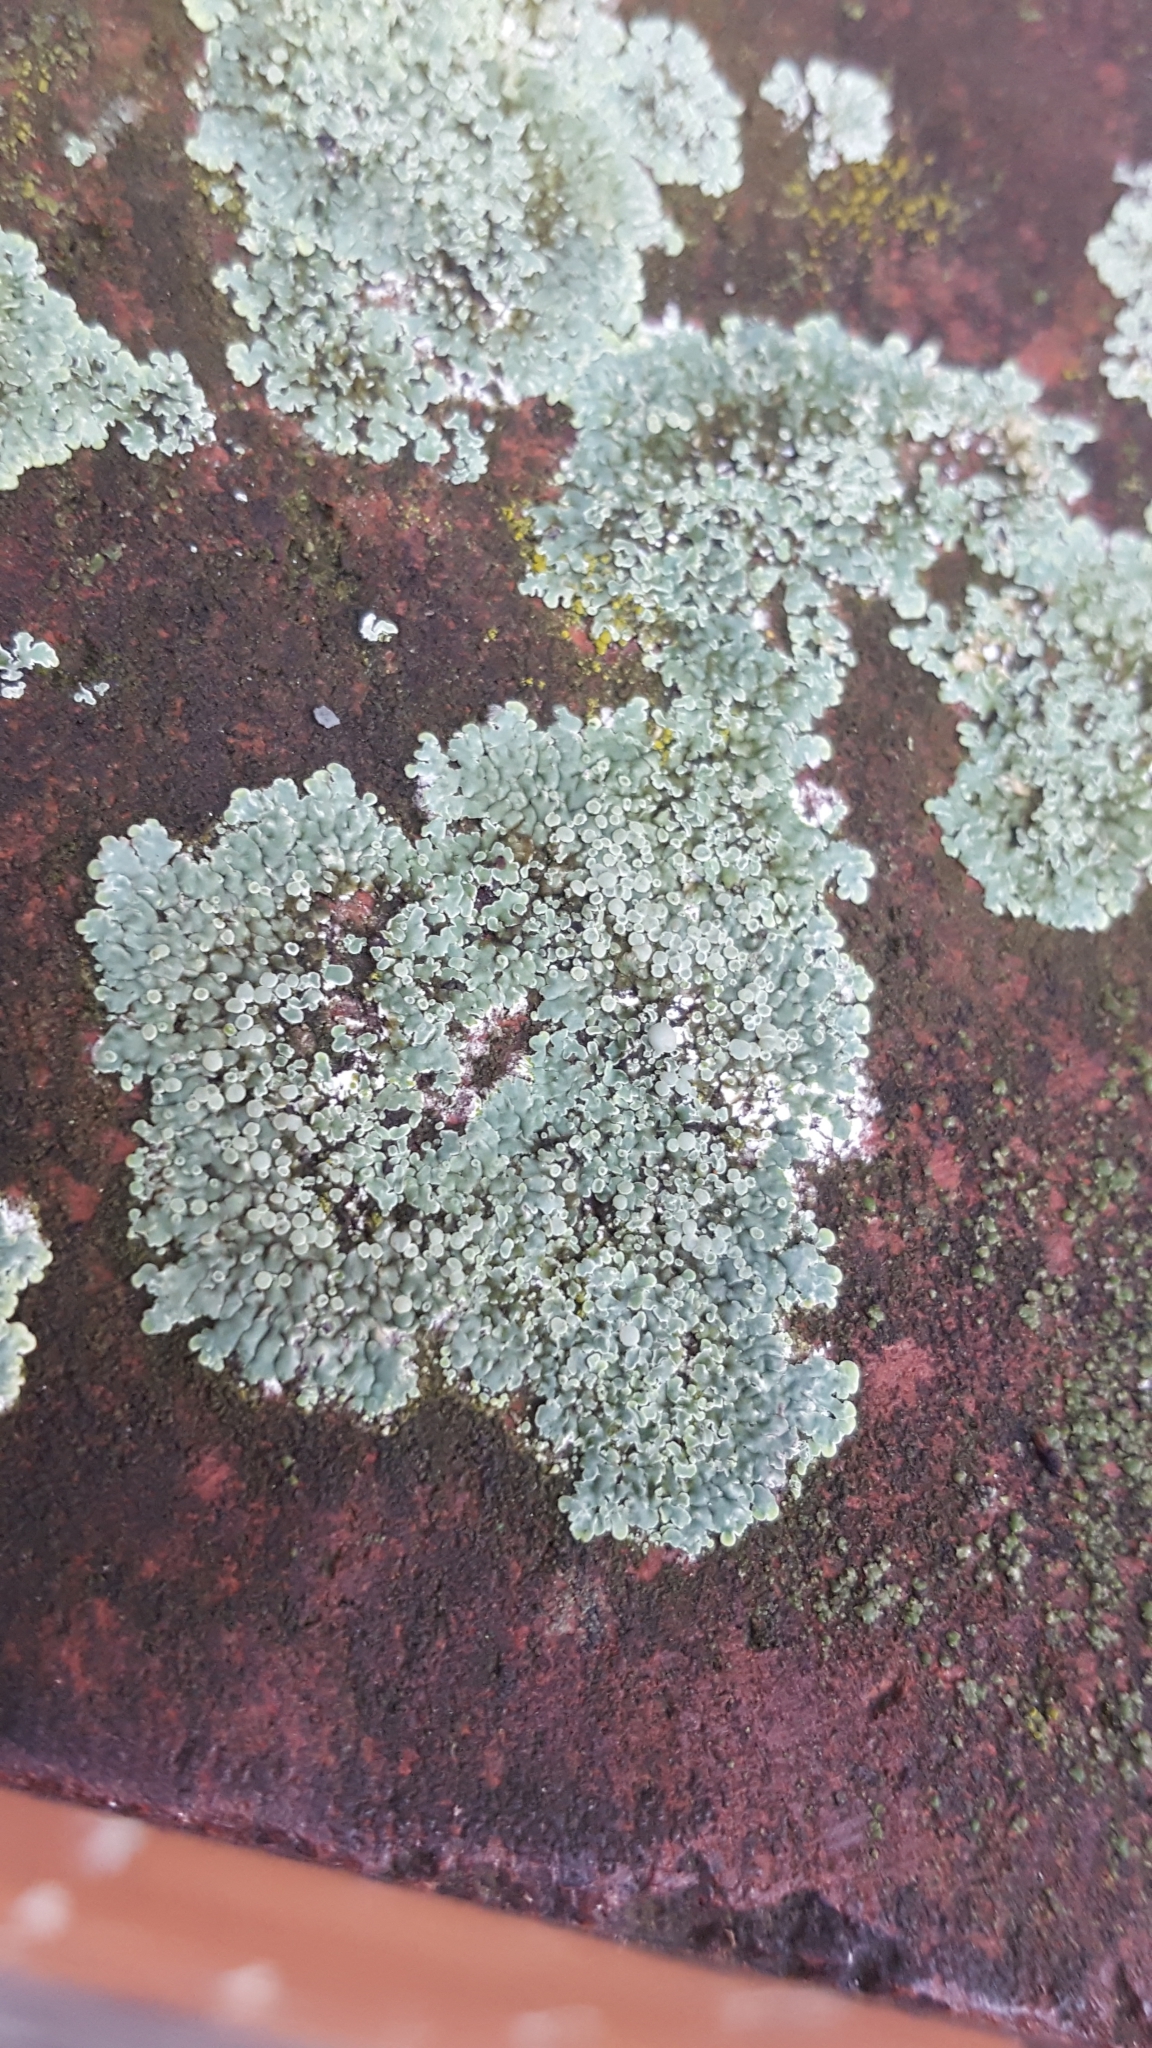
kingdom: Fungi
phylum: Ascomycota
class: Lecanoromycetes
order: Lecanorales
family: Lecanoraceae
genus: Protoparmeliopsis
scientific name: Protoparmeliopsis muralis
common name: Stonewall rim lichen
